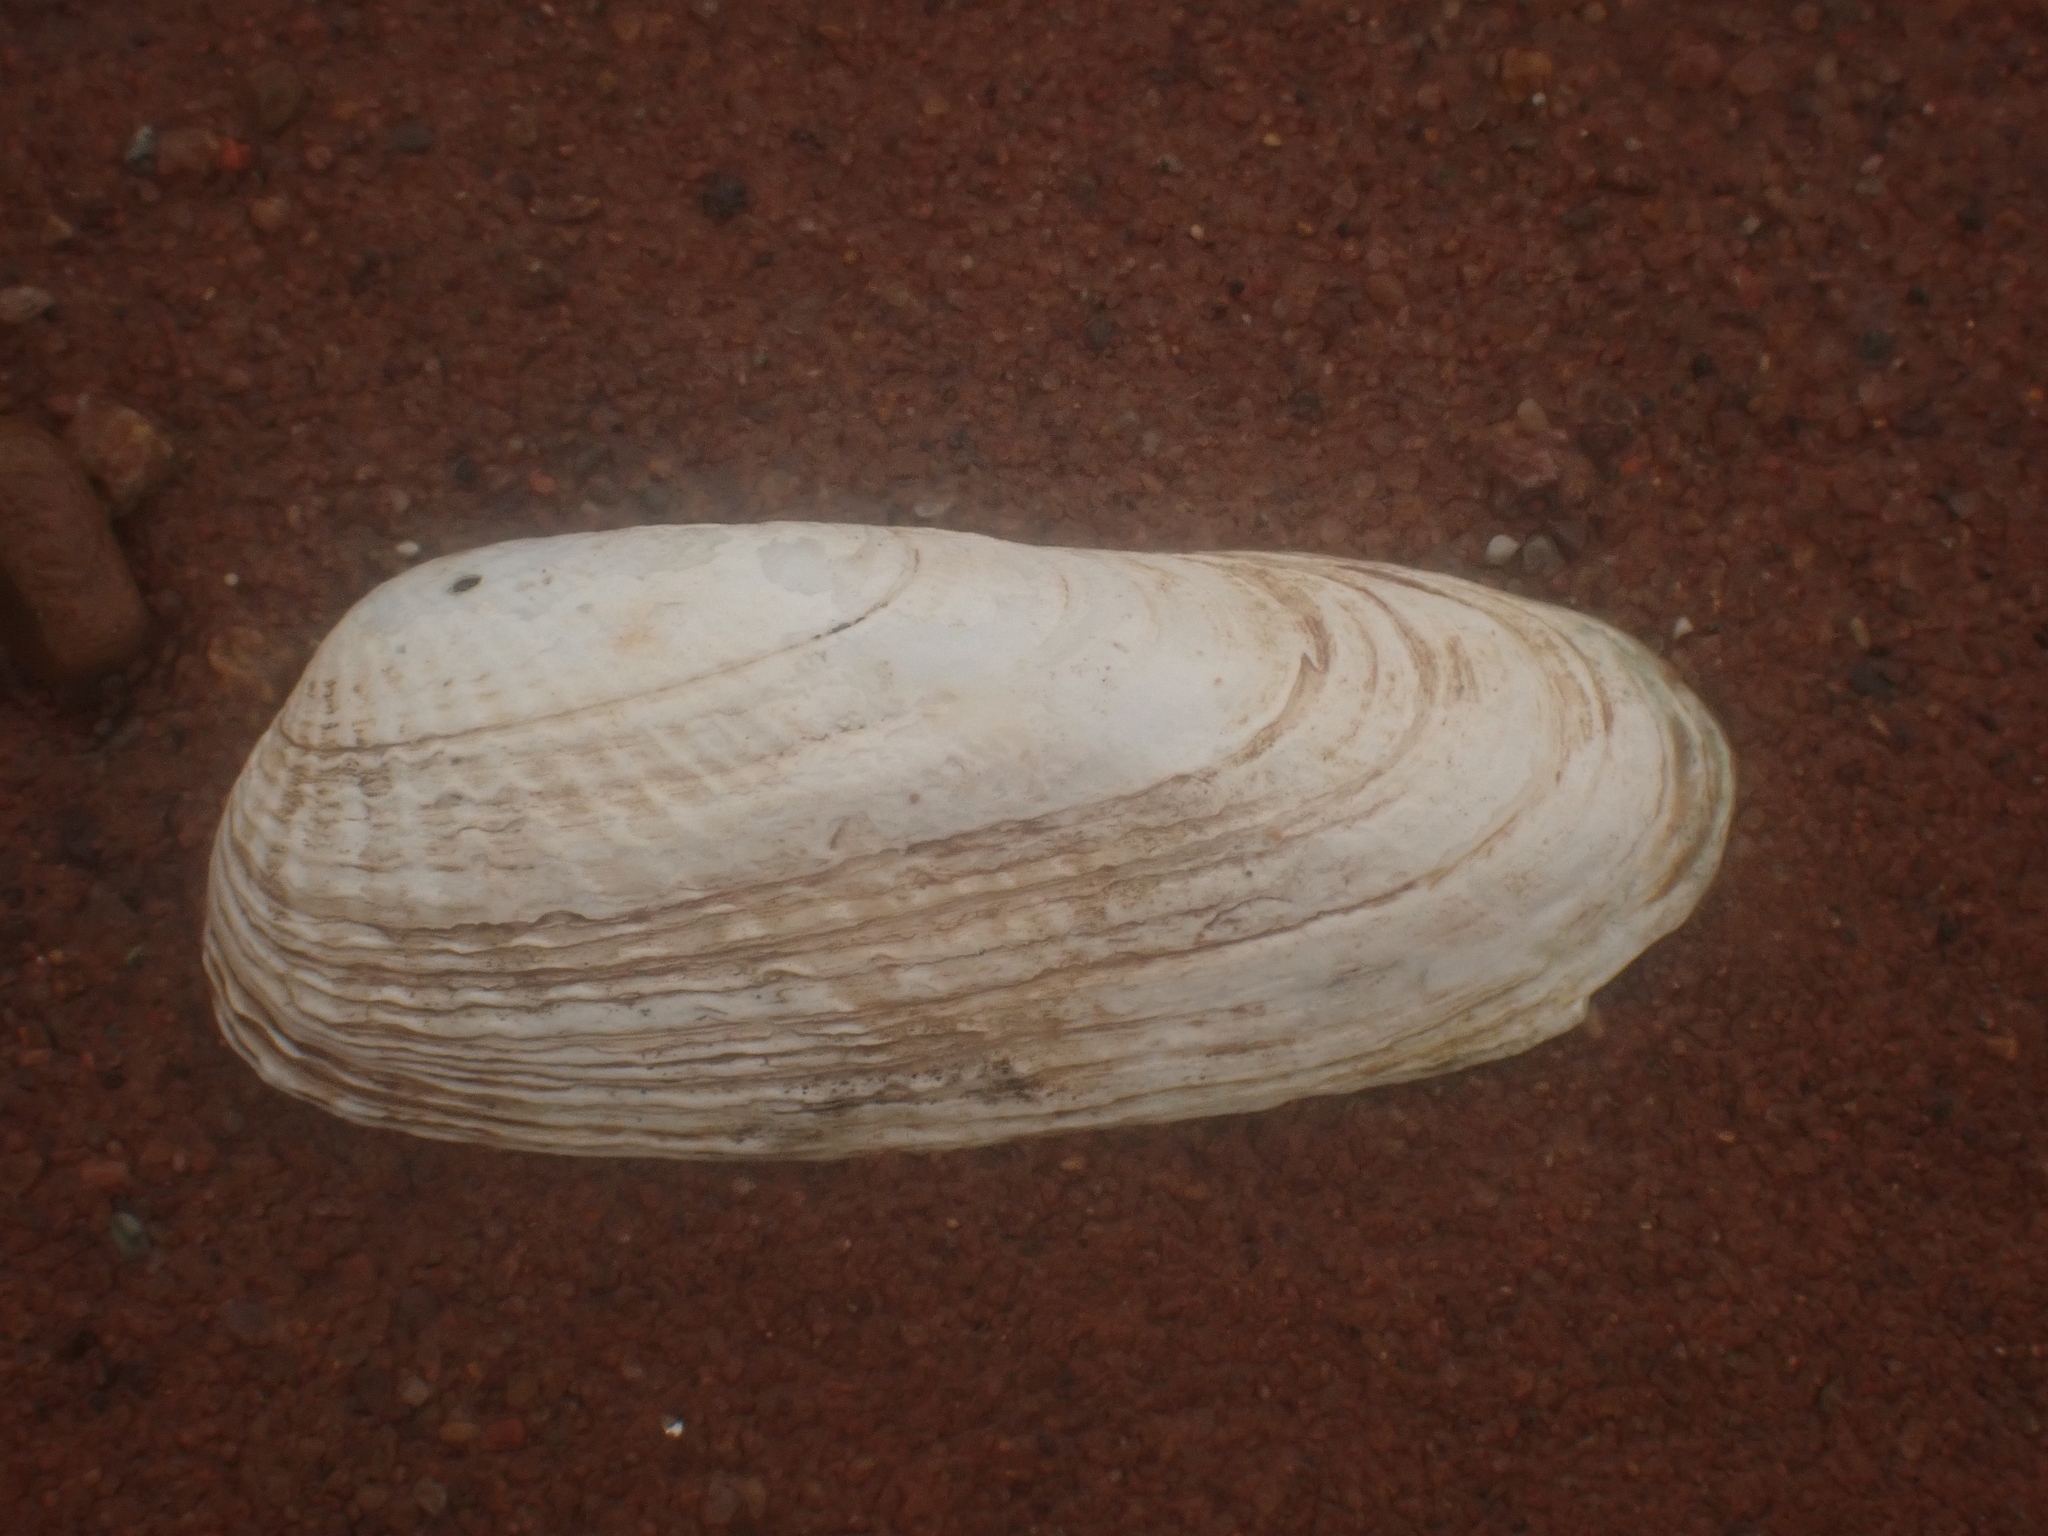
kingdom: Animalia
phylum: Mollusca
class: Bivalvia
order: Venerida
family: Veneridae
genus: Petricolaria
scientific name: Petricolaria pholadiformis
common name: American piddock
